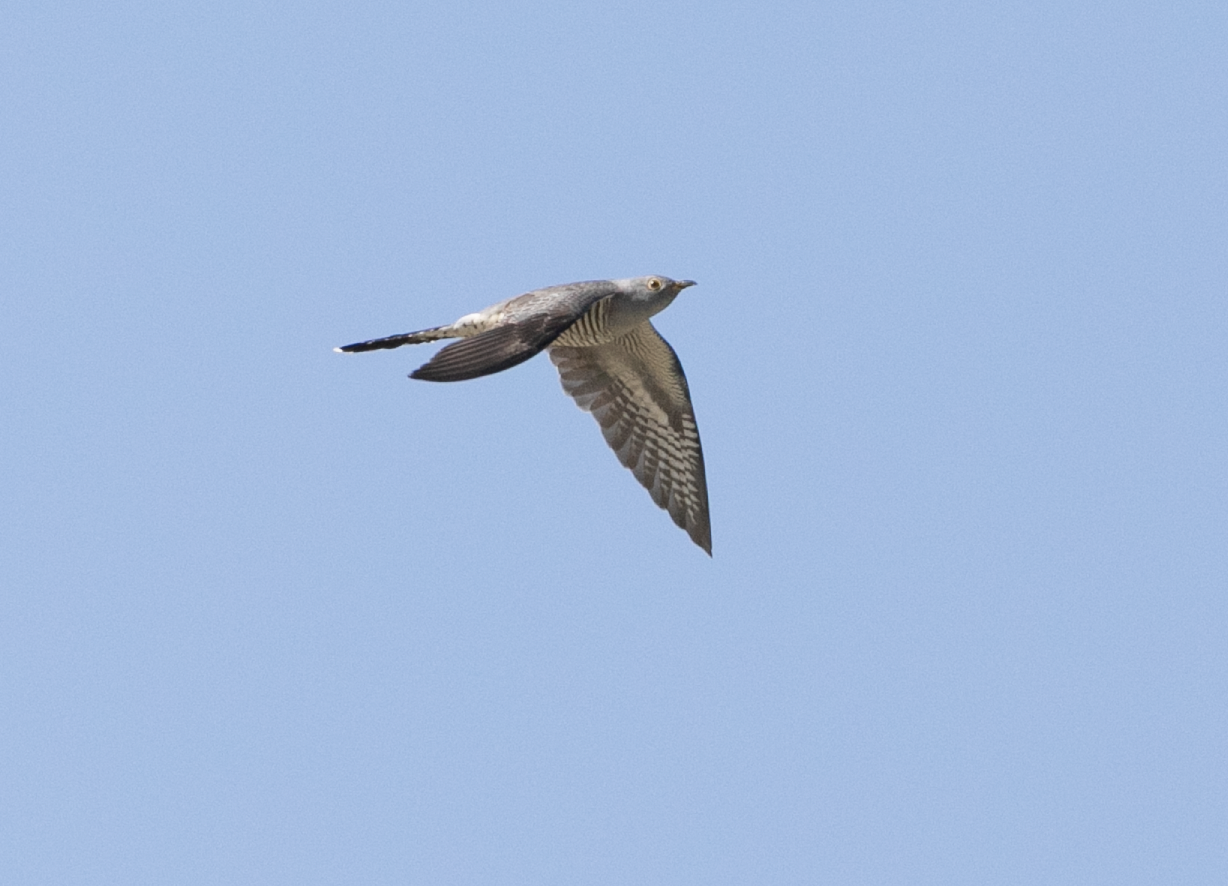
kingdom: Animalia
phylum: Chordata
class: Aves
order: Cuculiformes
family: Cuculidae
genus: Cuculus
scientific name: Cuculus canorus
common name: Common cuckoo
